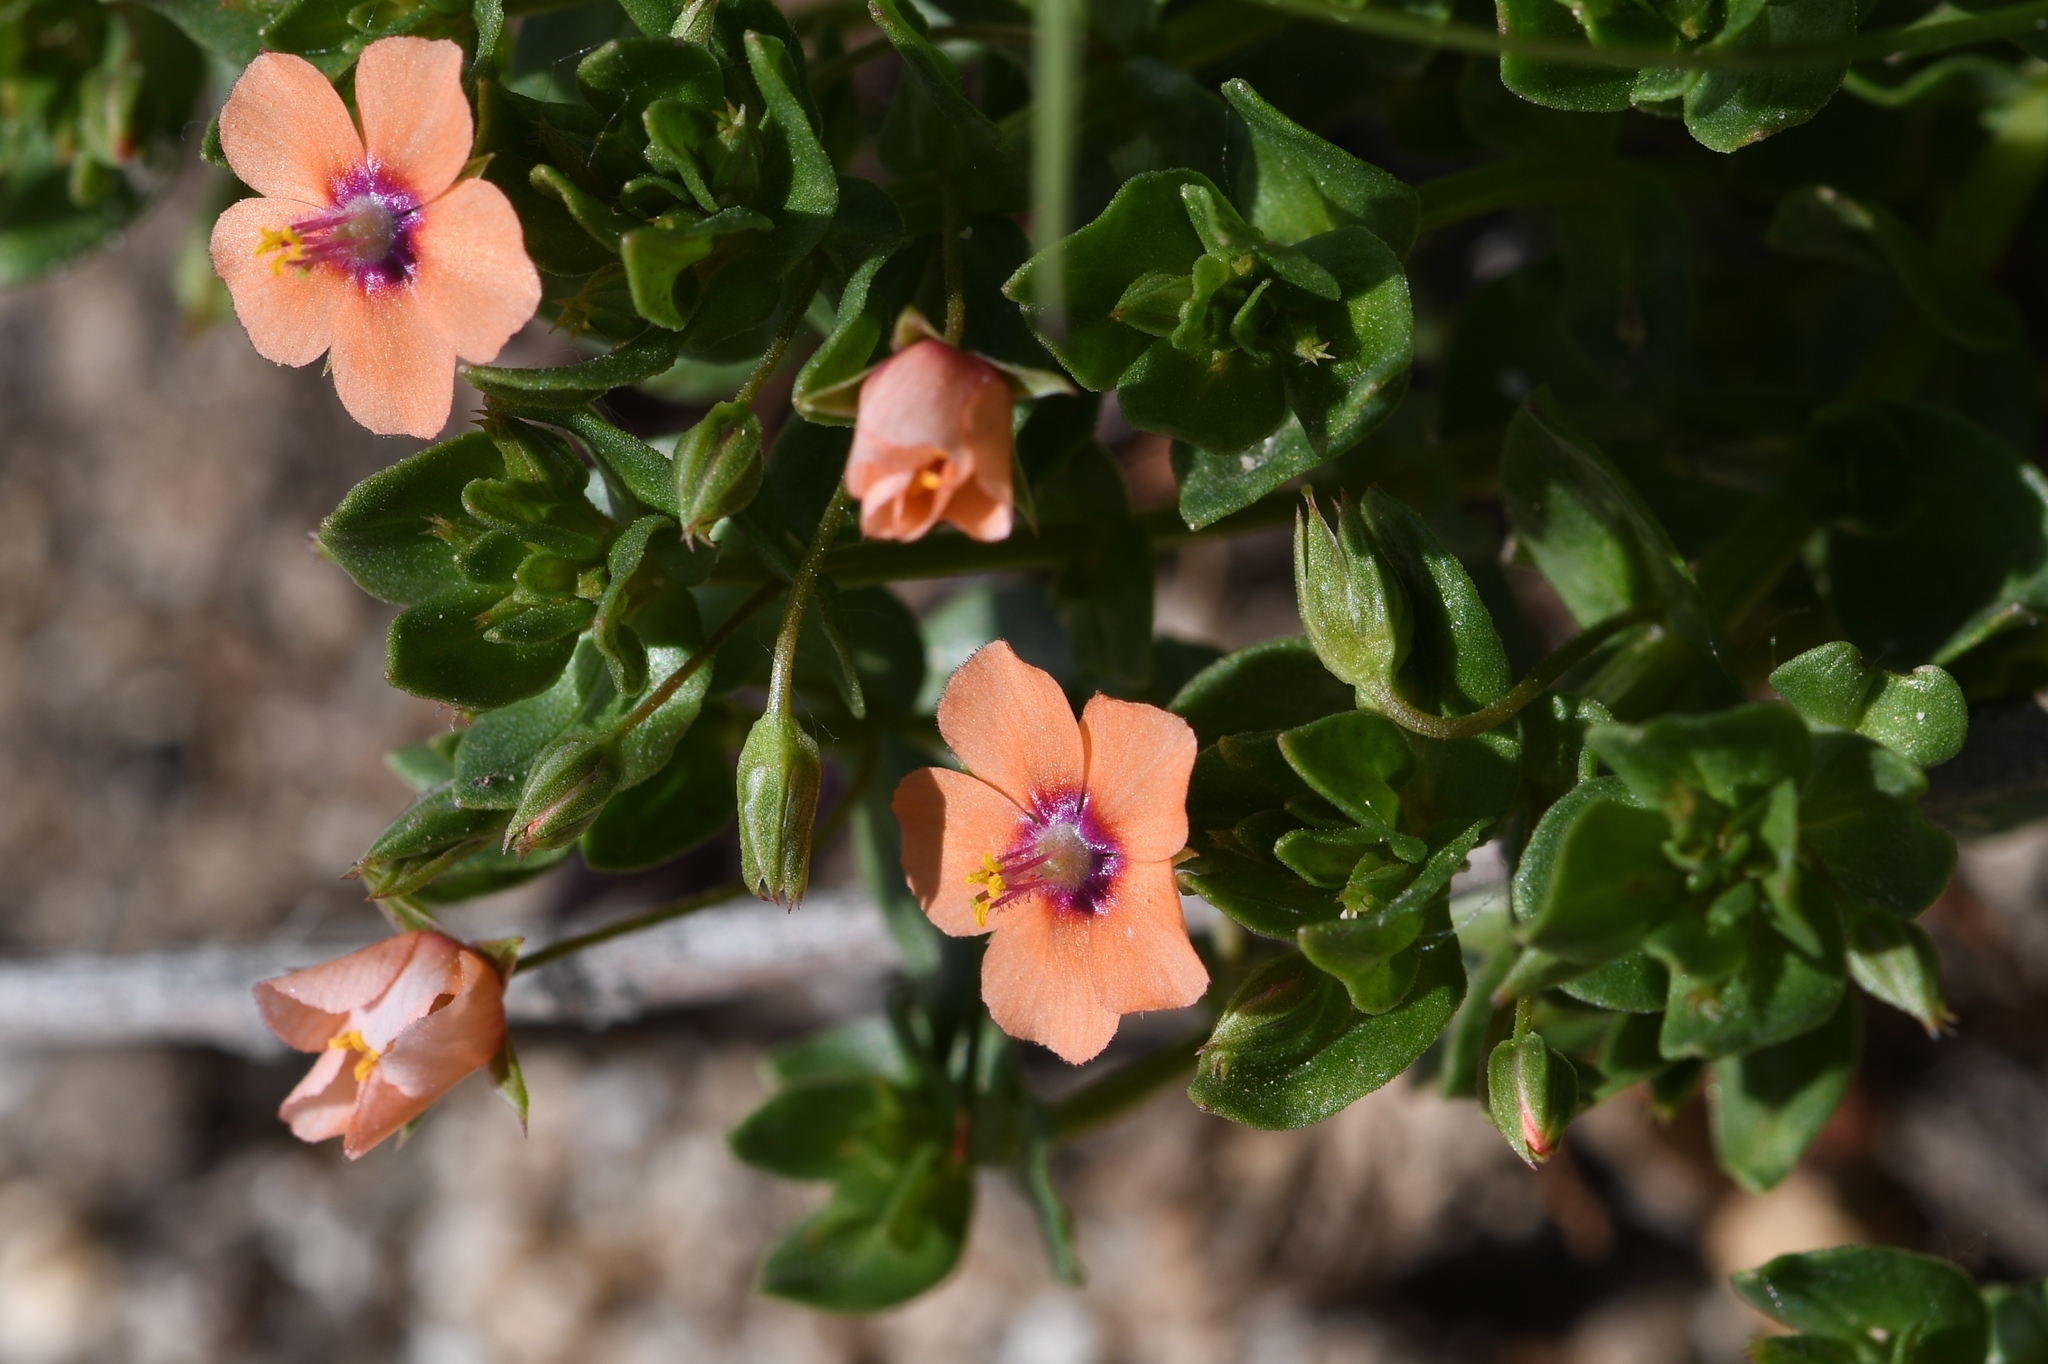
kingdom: Plantae
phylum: Tracheophyta
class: Magnoliopsida
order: Ericales
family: Primulaceae
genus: Lysimachia
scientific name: Lysimachia arvensis
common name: Scarlet pimpernel
